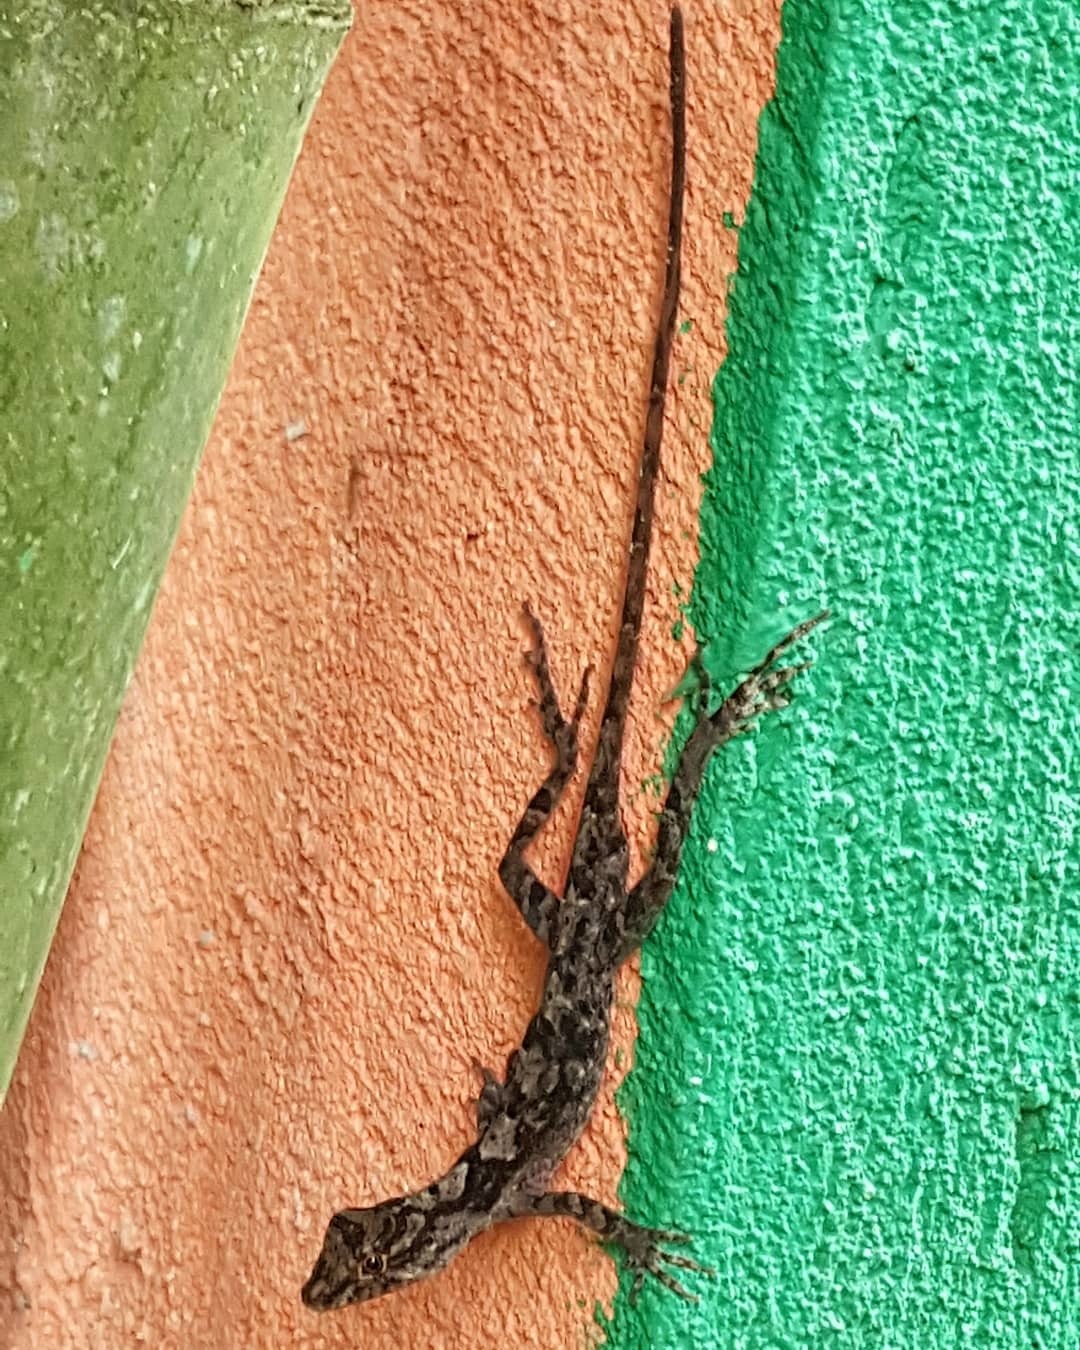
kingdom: Animalia
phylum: Chordata
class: Squamata
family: Dactyloidae
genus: Anolis
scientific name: Anolis schiedii
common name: Schiede's anole
